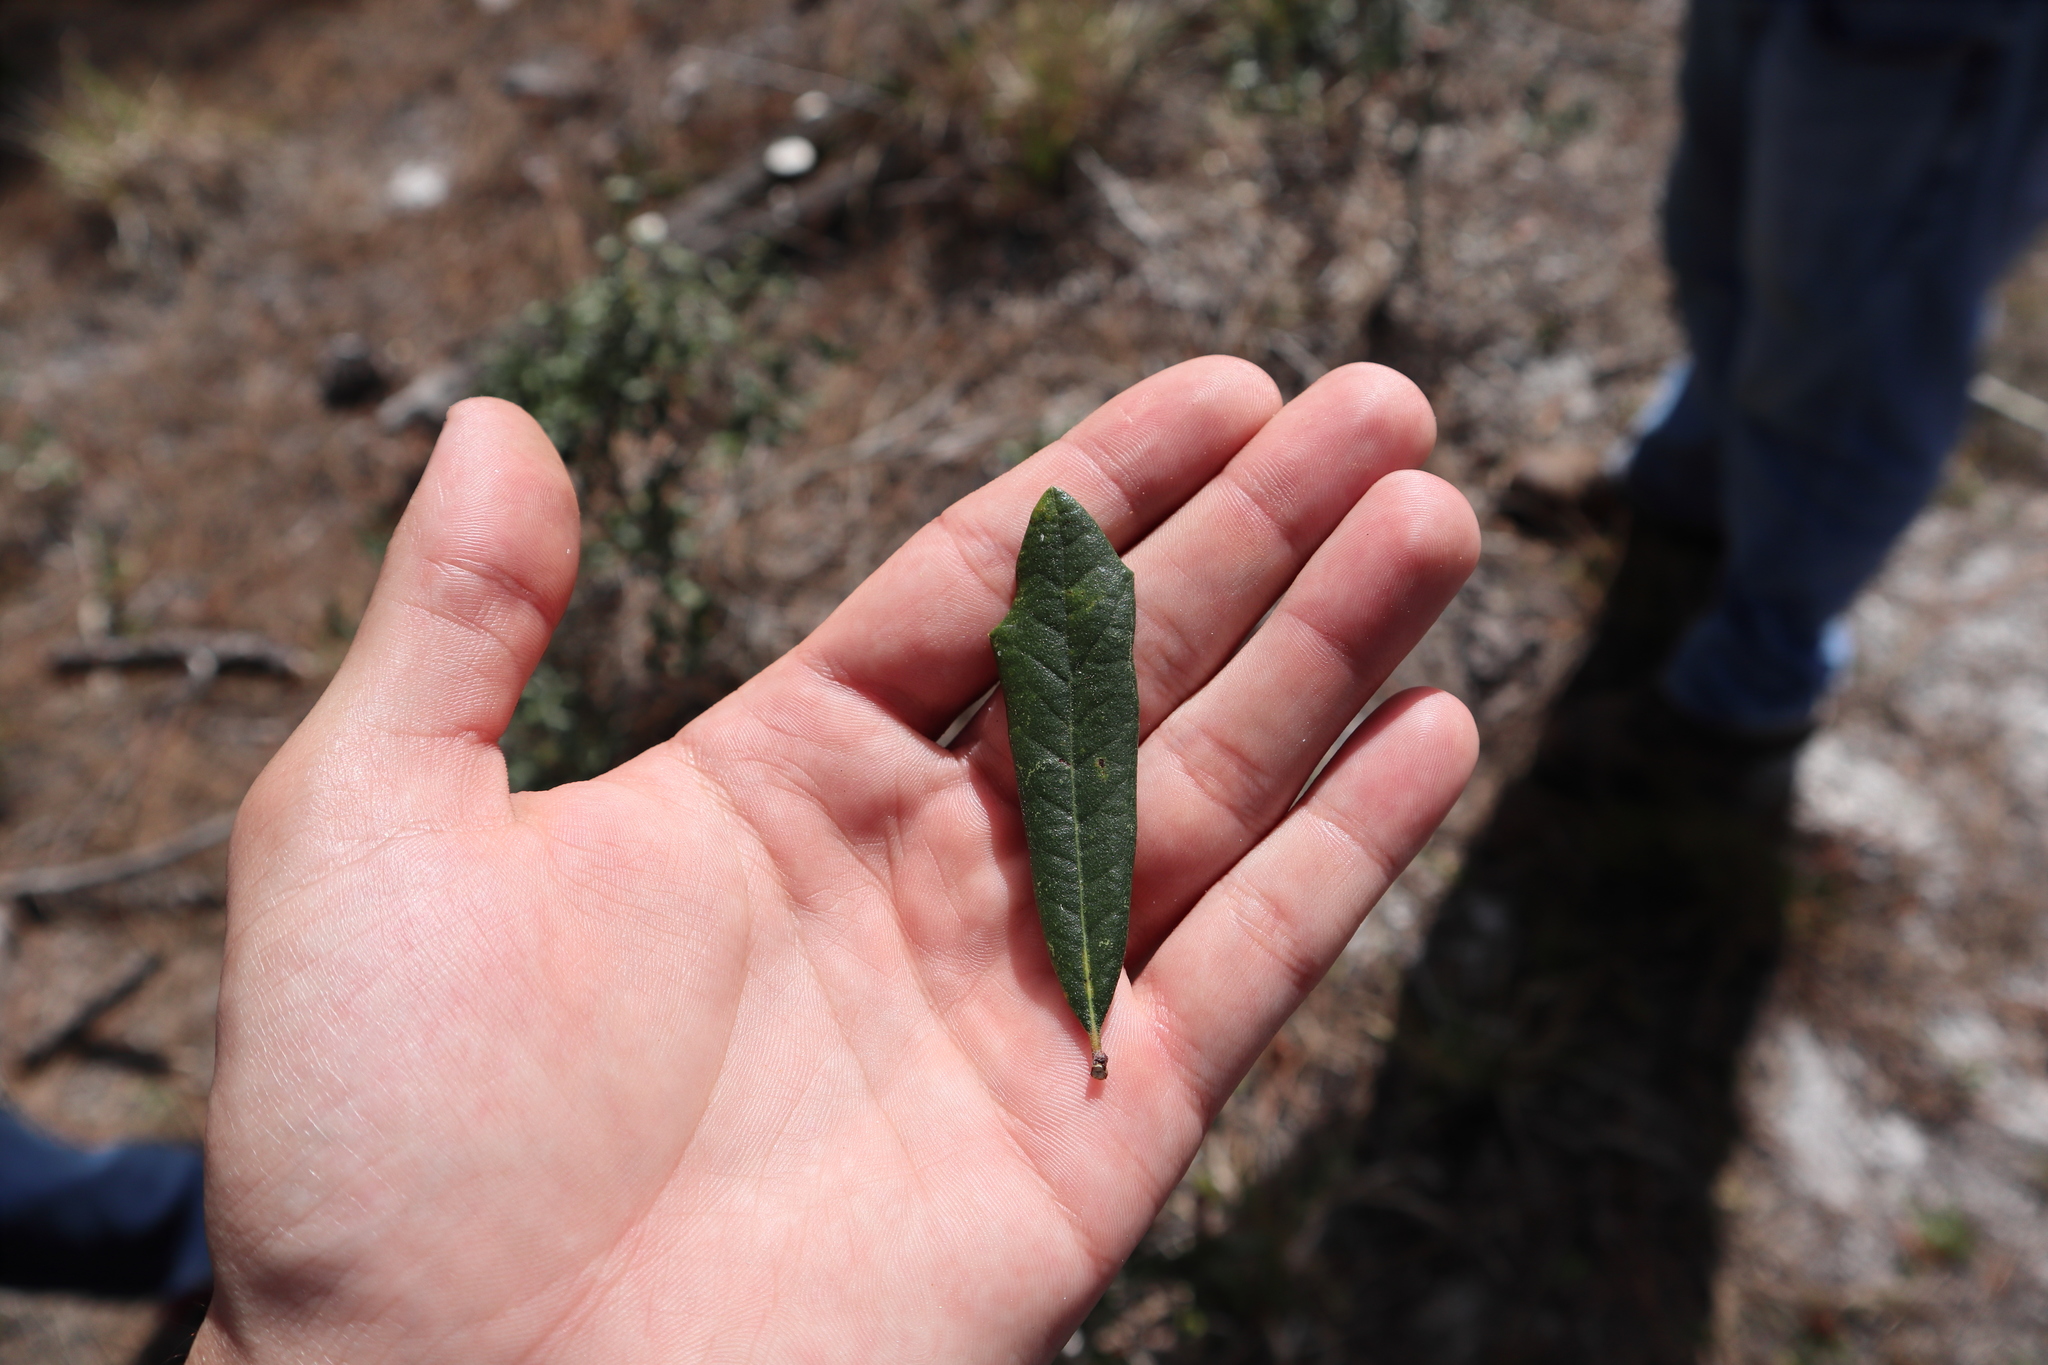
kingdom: Plantae
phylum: Tracheophyta
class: Magnoliopsida
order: Fagales
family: Fagaceae
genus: Quercus
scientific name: Quercus minima
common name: Dwarf live oak
